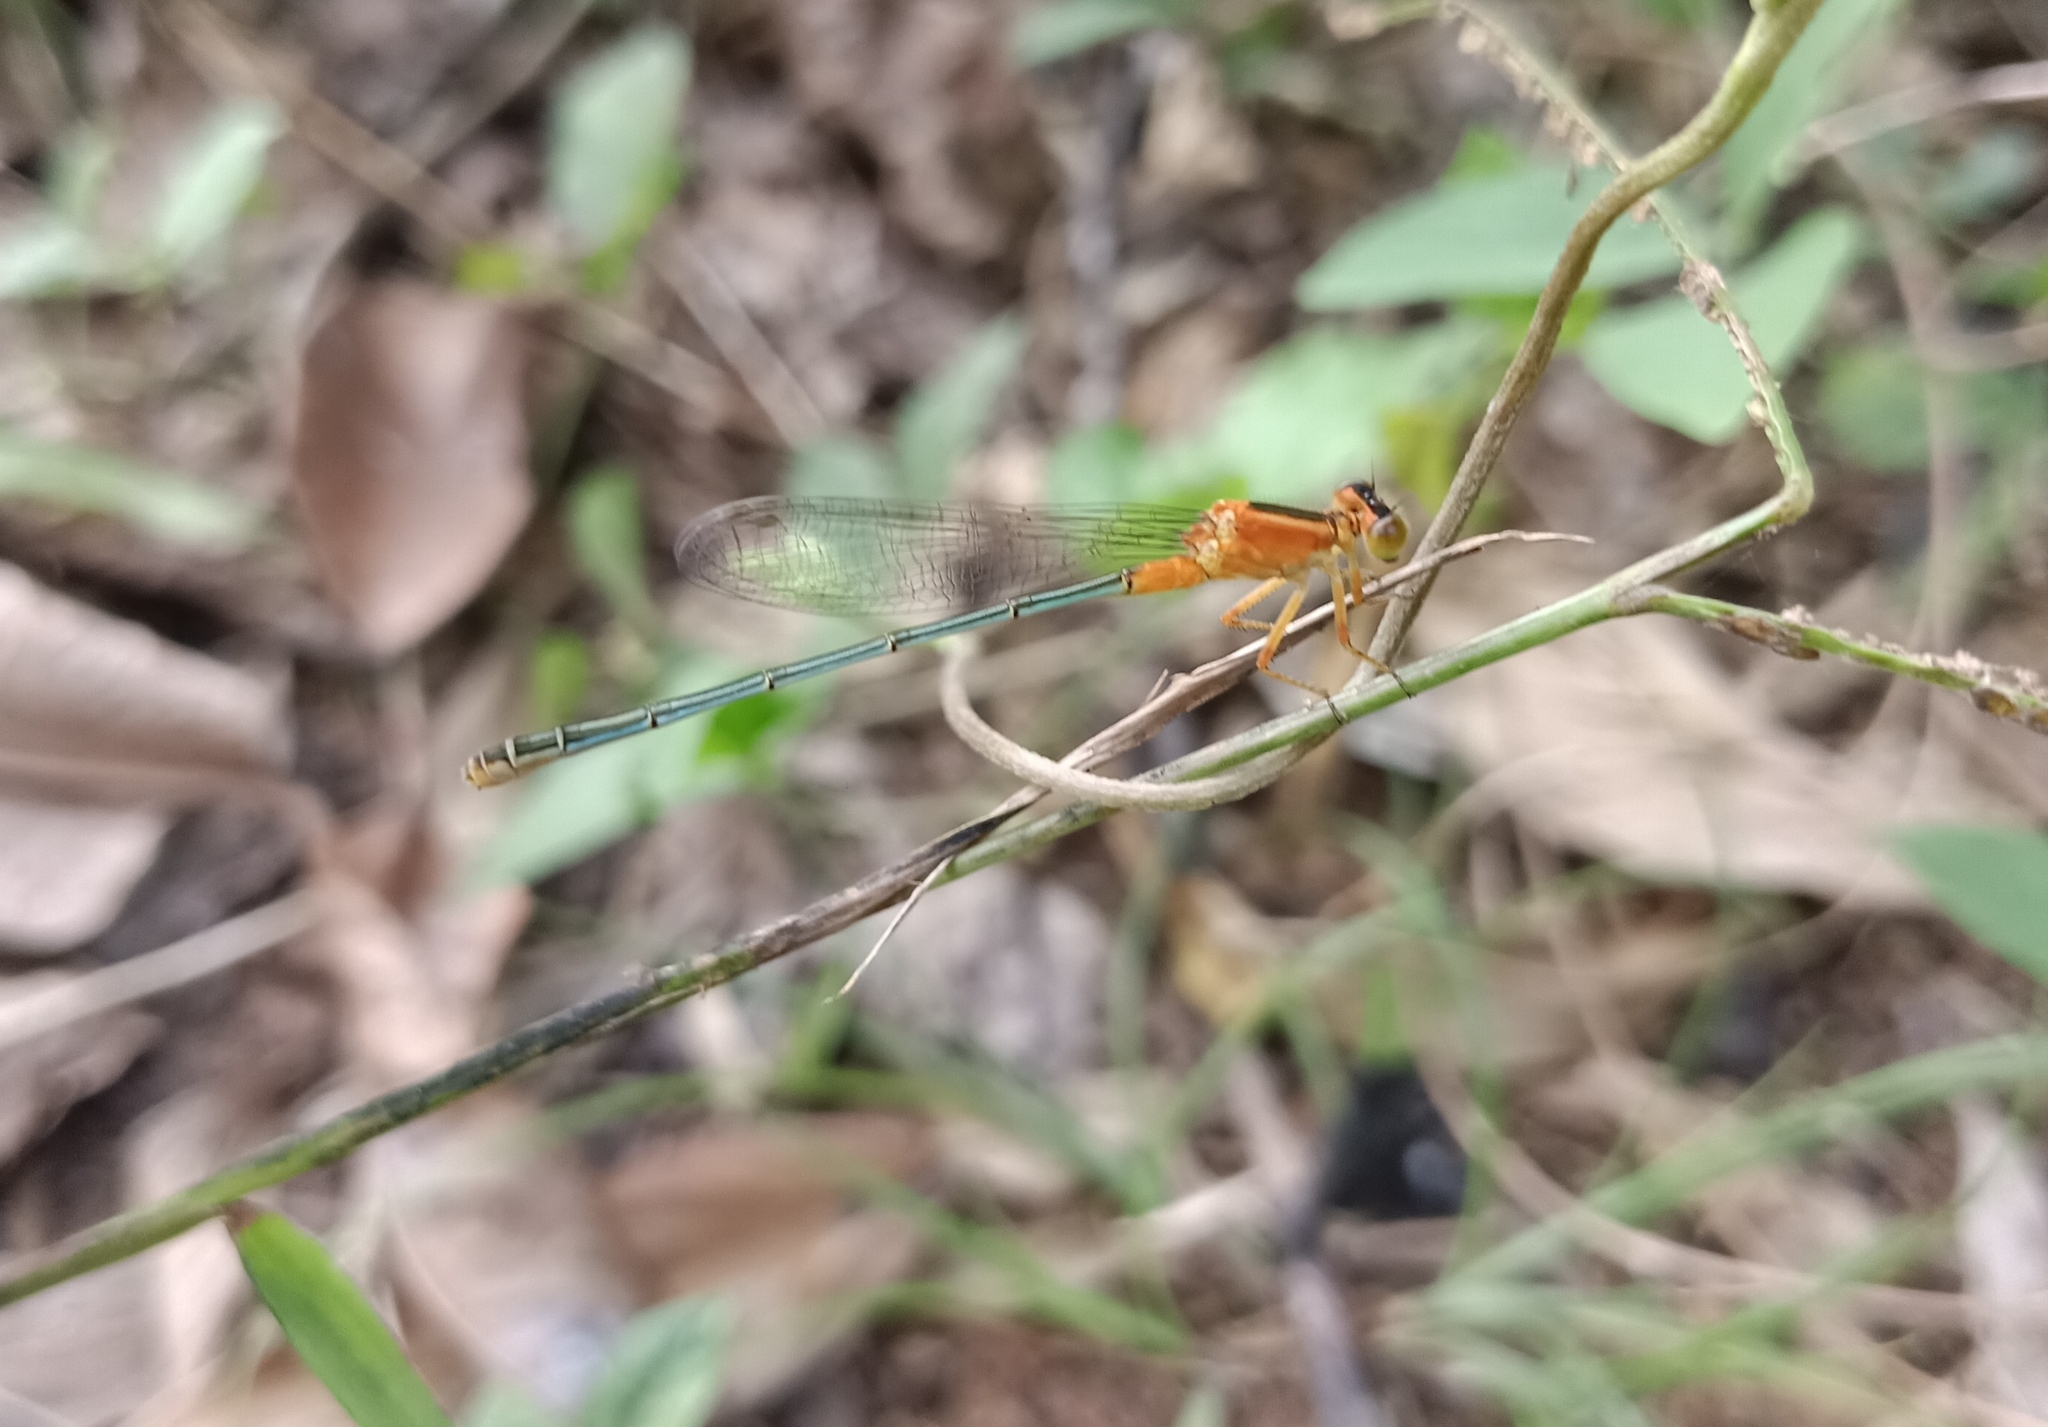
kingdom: Animalia
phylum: Arthropoda
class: Insecta
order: Odonata
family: Coenagrionidae
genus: Ischnura
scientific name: Ischnura senegalensis
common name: Tropical bluetail
